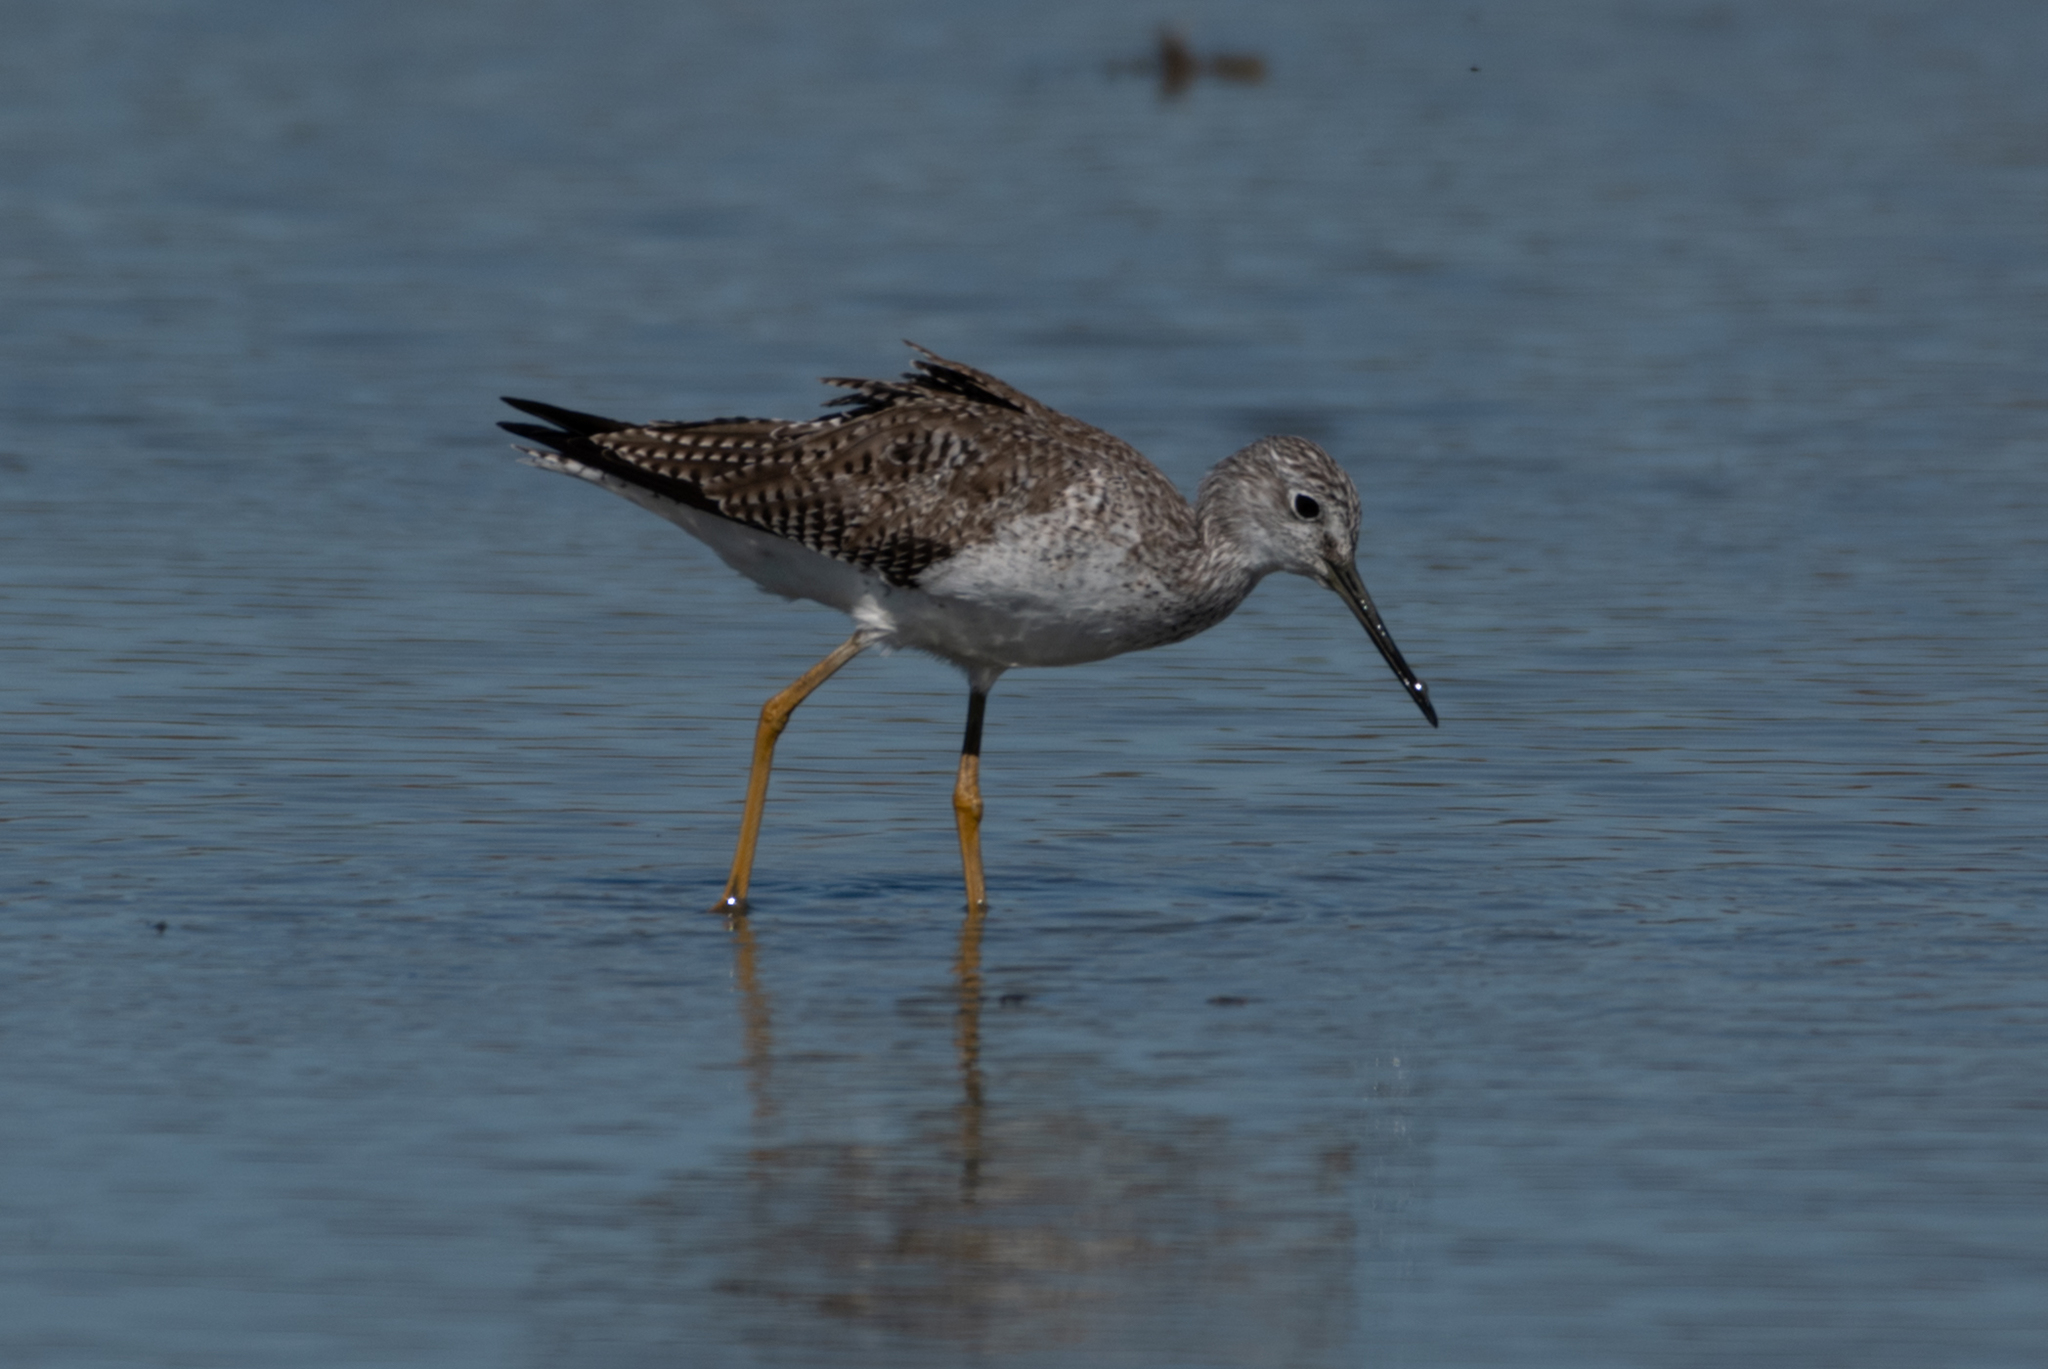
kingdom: Animalia
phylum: Chordata
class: Aves
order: Charadriiformes
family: Scolopacidae
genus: Tringa
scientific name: Tringa melanoleuca
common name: Greater yellowlegs
